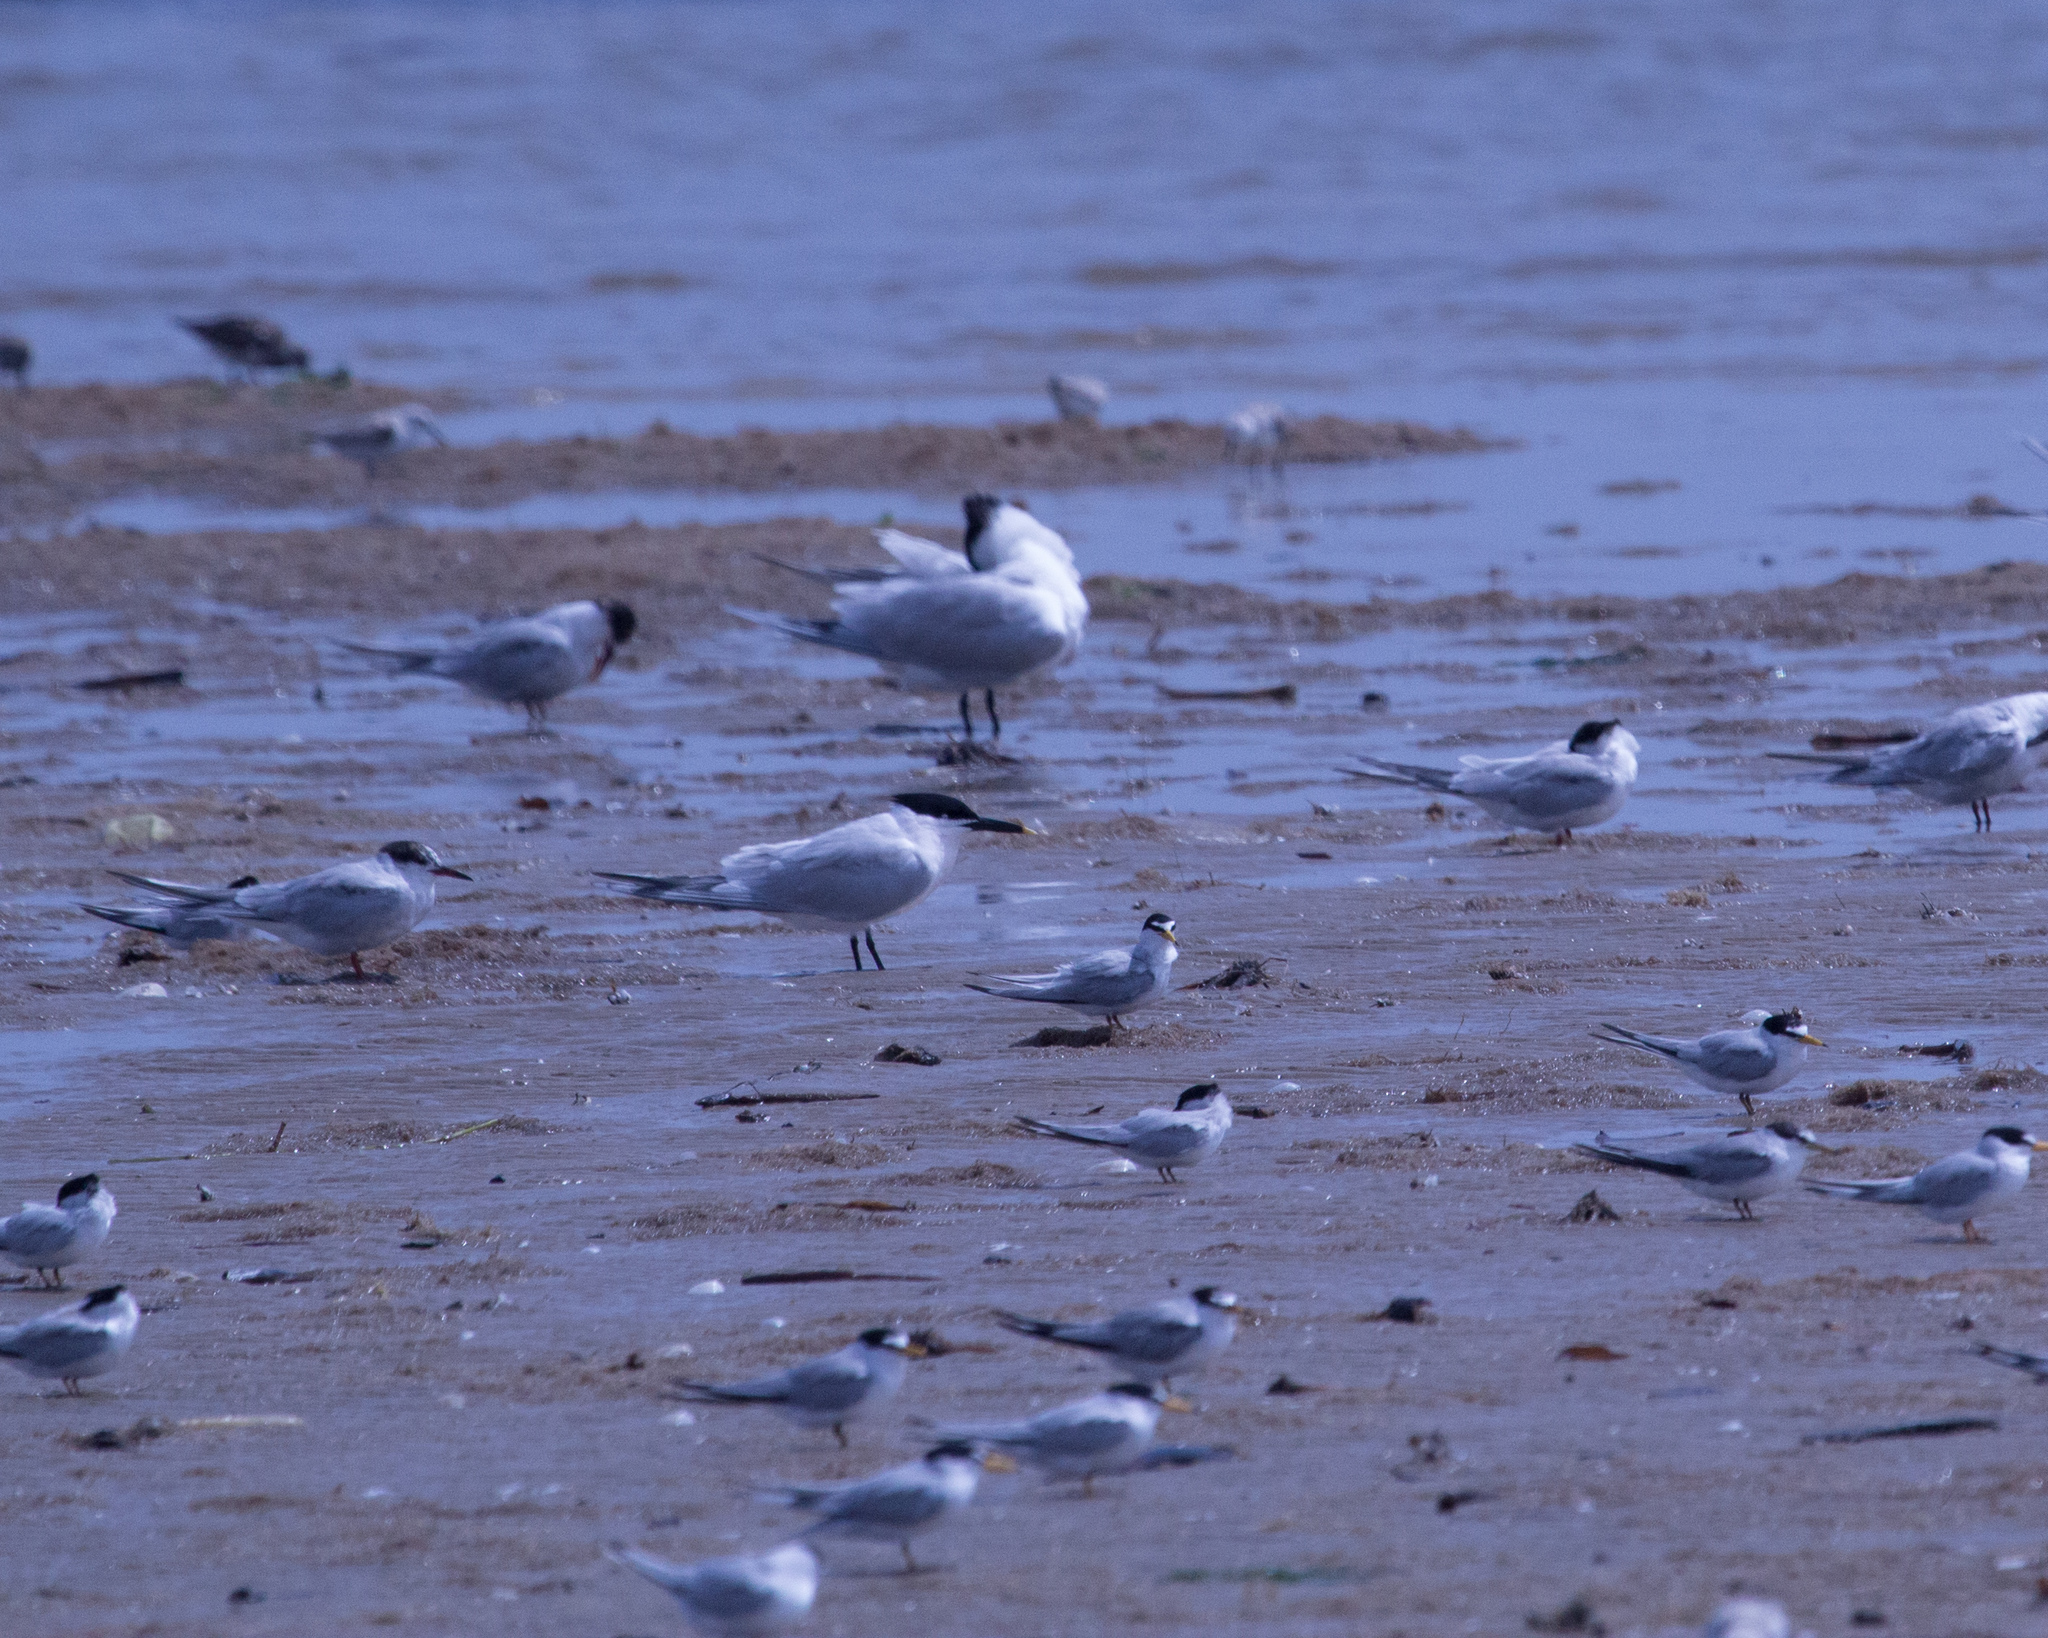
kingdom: Animalia
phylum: Chordata
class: Aves
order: Charadriiformes
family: Laridae
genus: Thalasseus
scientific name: Thalasseus sandvicensis
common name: Sandwich tern
